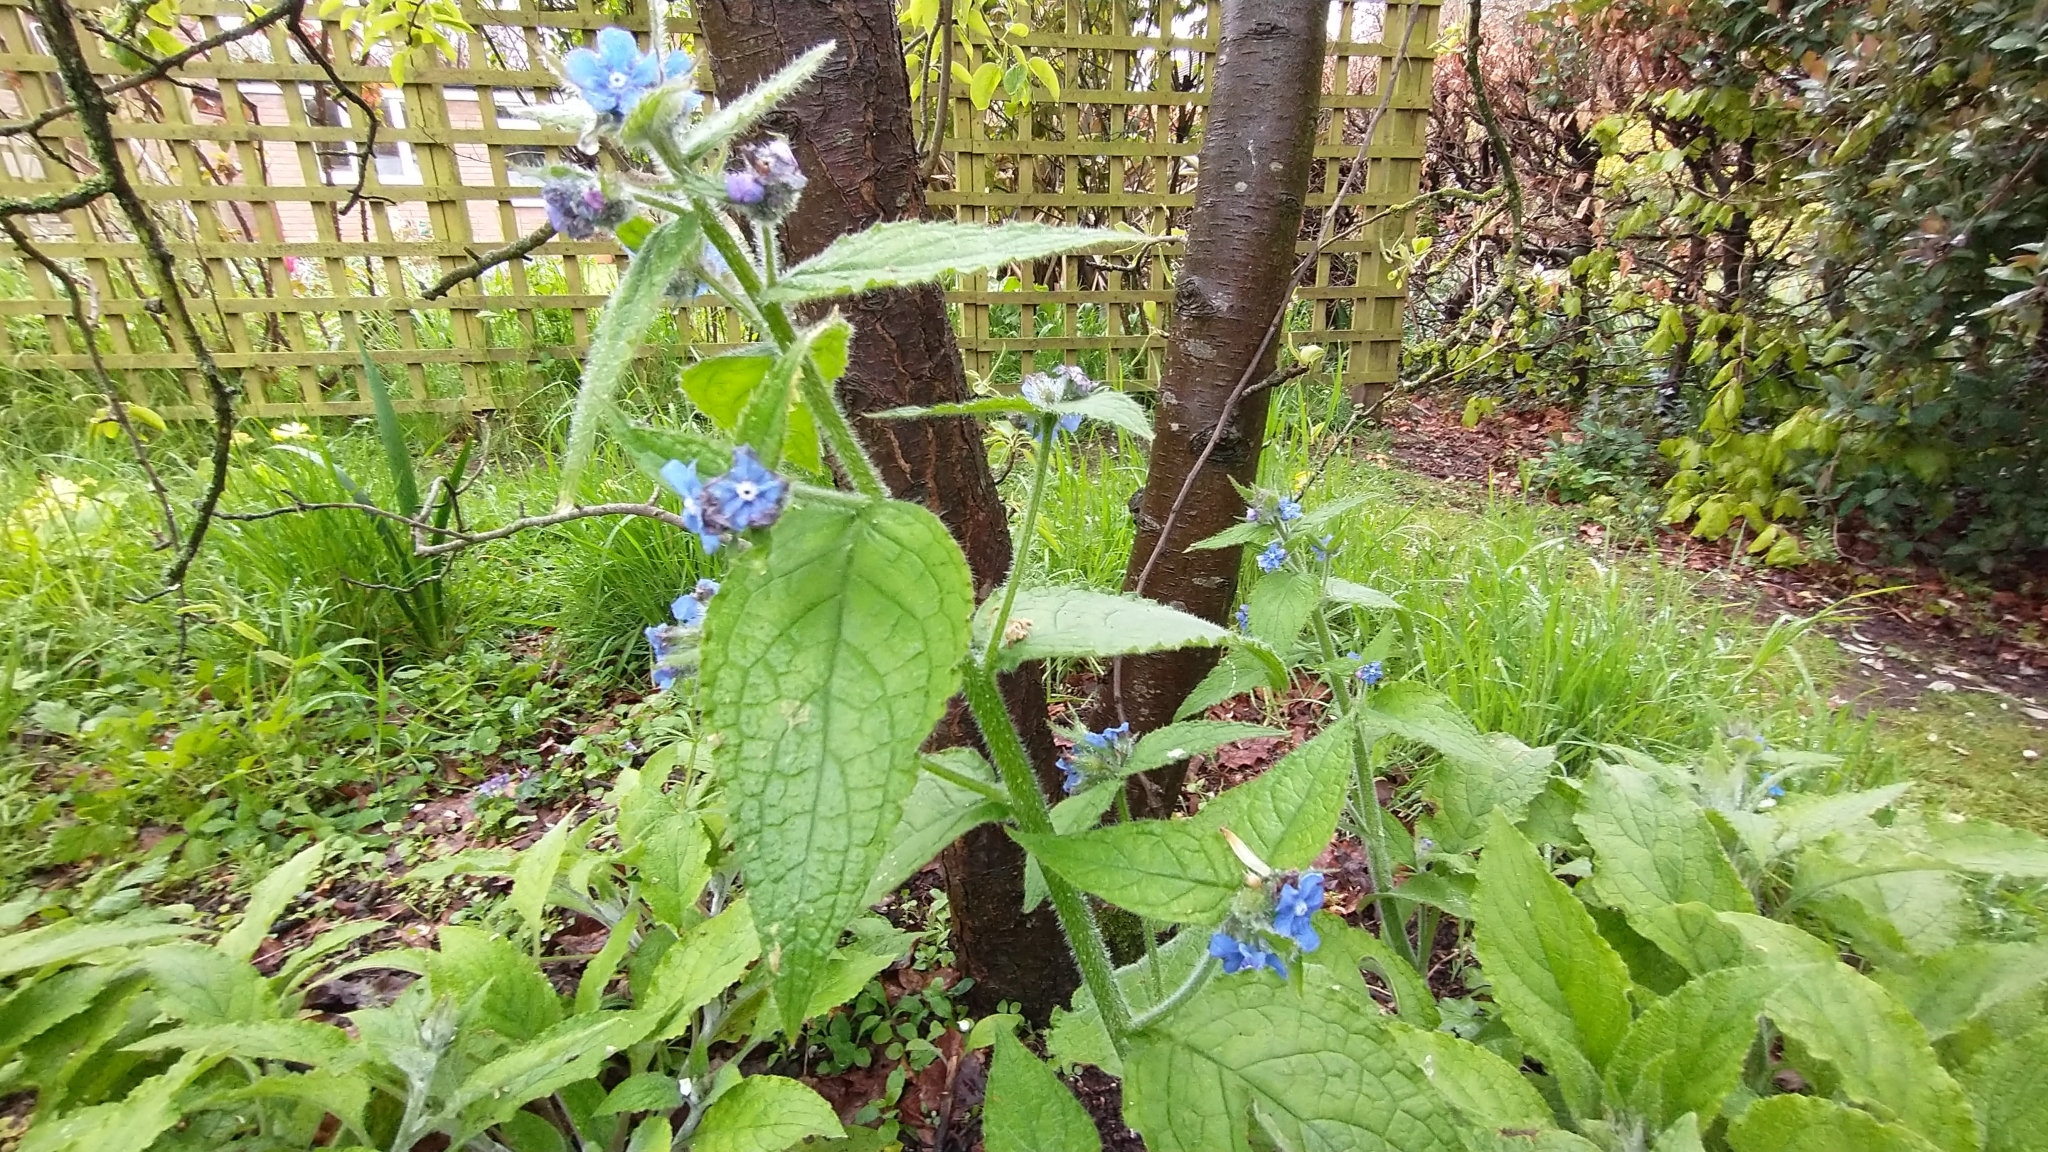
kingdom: Plantae
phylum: Tracheophyta
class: Magnoliopsida
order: Boraginales
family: Boraginaceae
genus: Pentaglottis
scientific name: Pentaglottis sempervirens
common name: Green alkanet
